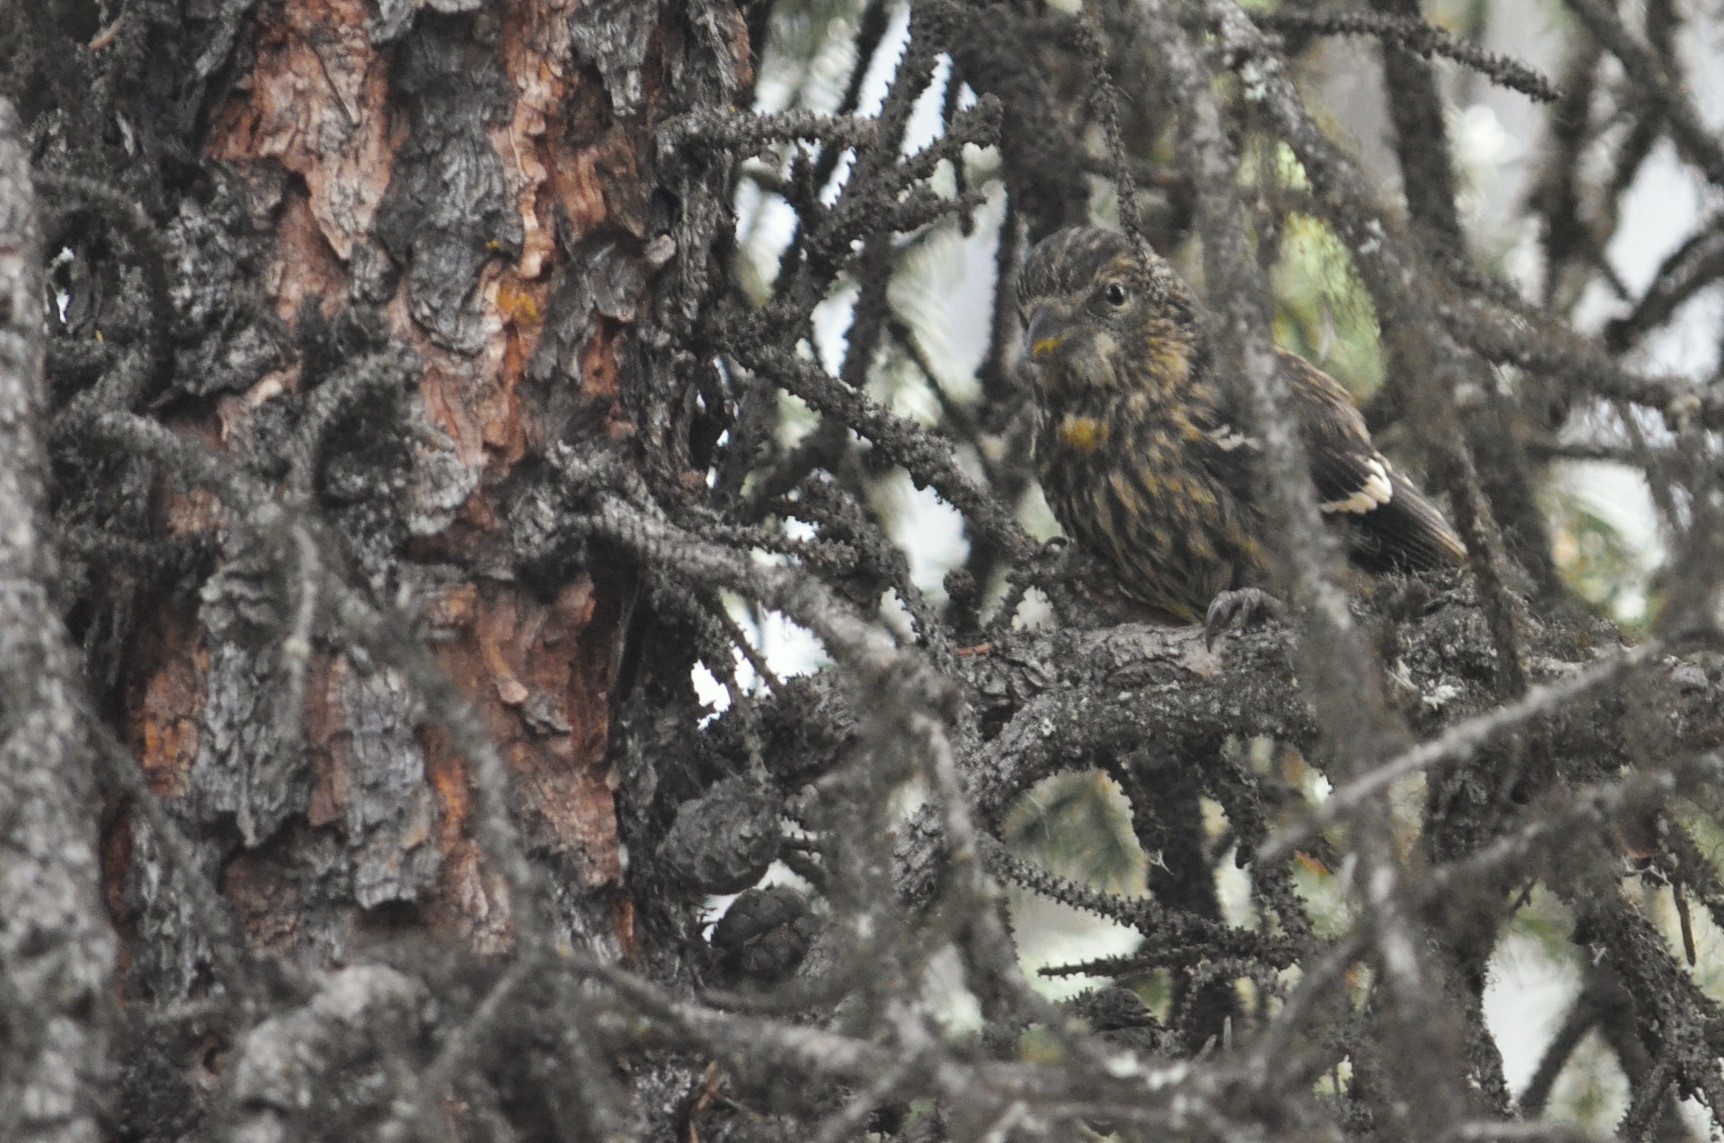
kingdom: Animalia
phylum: Chordata
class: Aves
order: Passeriformes
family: Fringillidae
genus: Loxia
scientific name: Loxia leucoptera
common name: Two-barred crossbill
